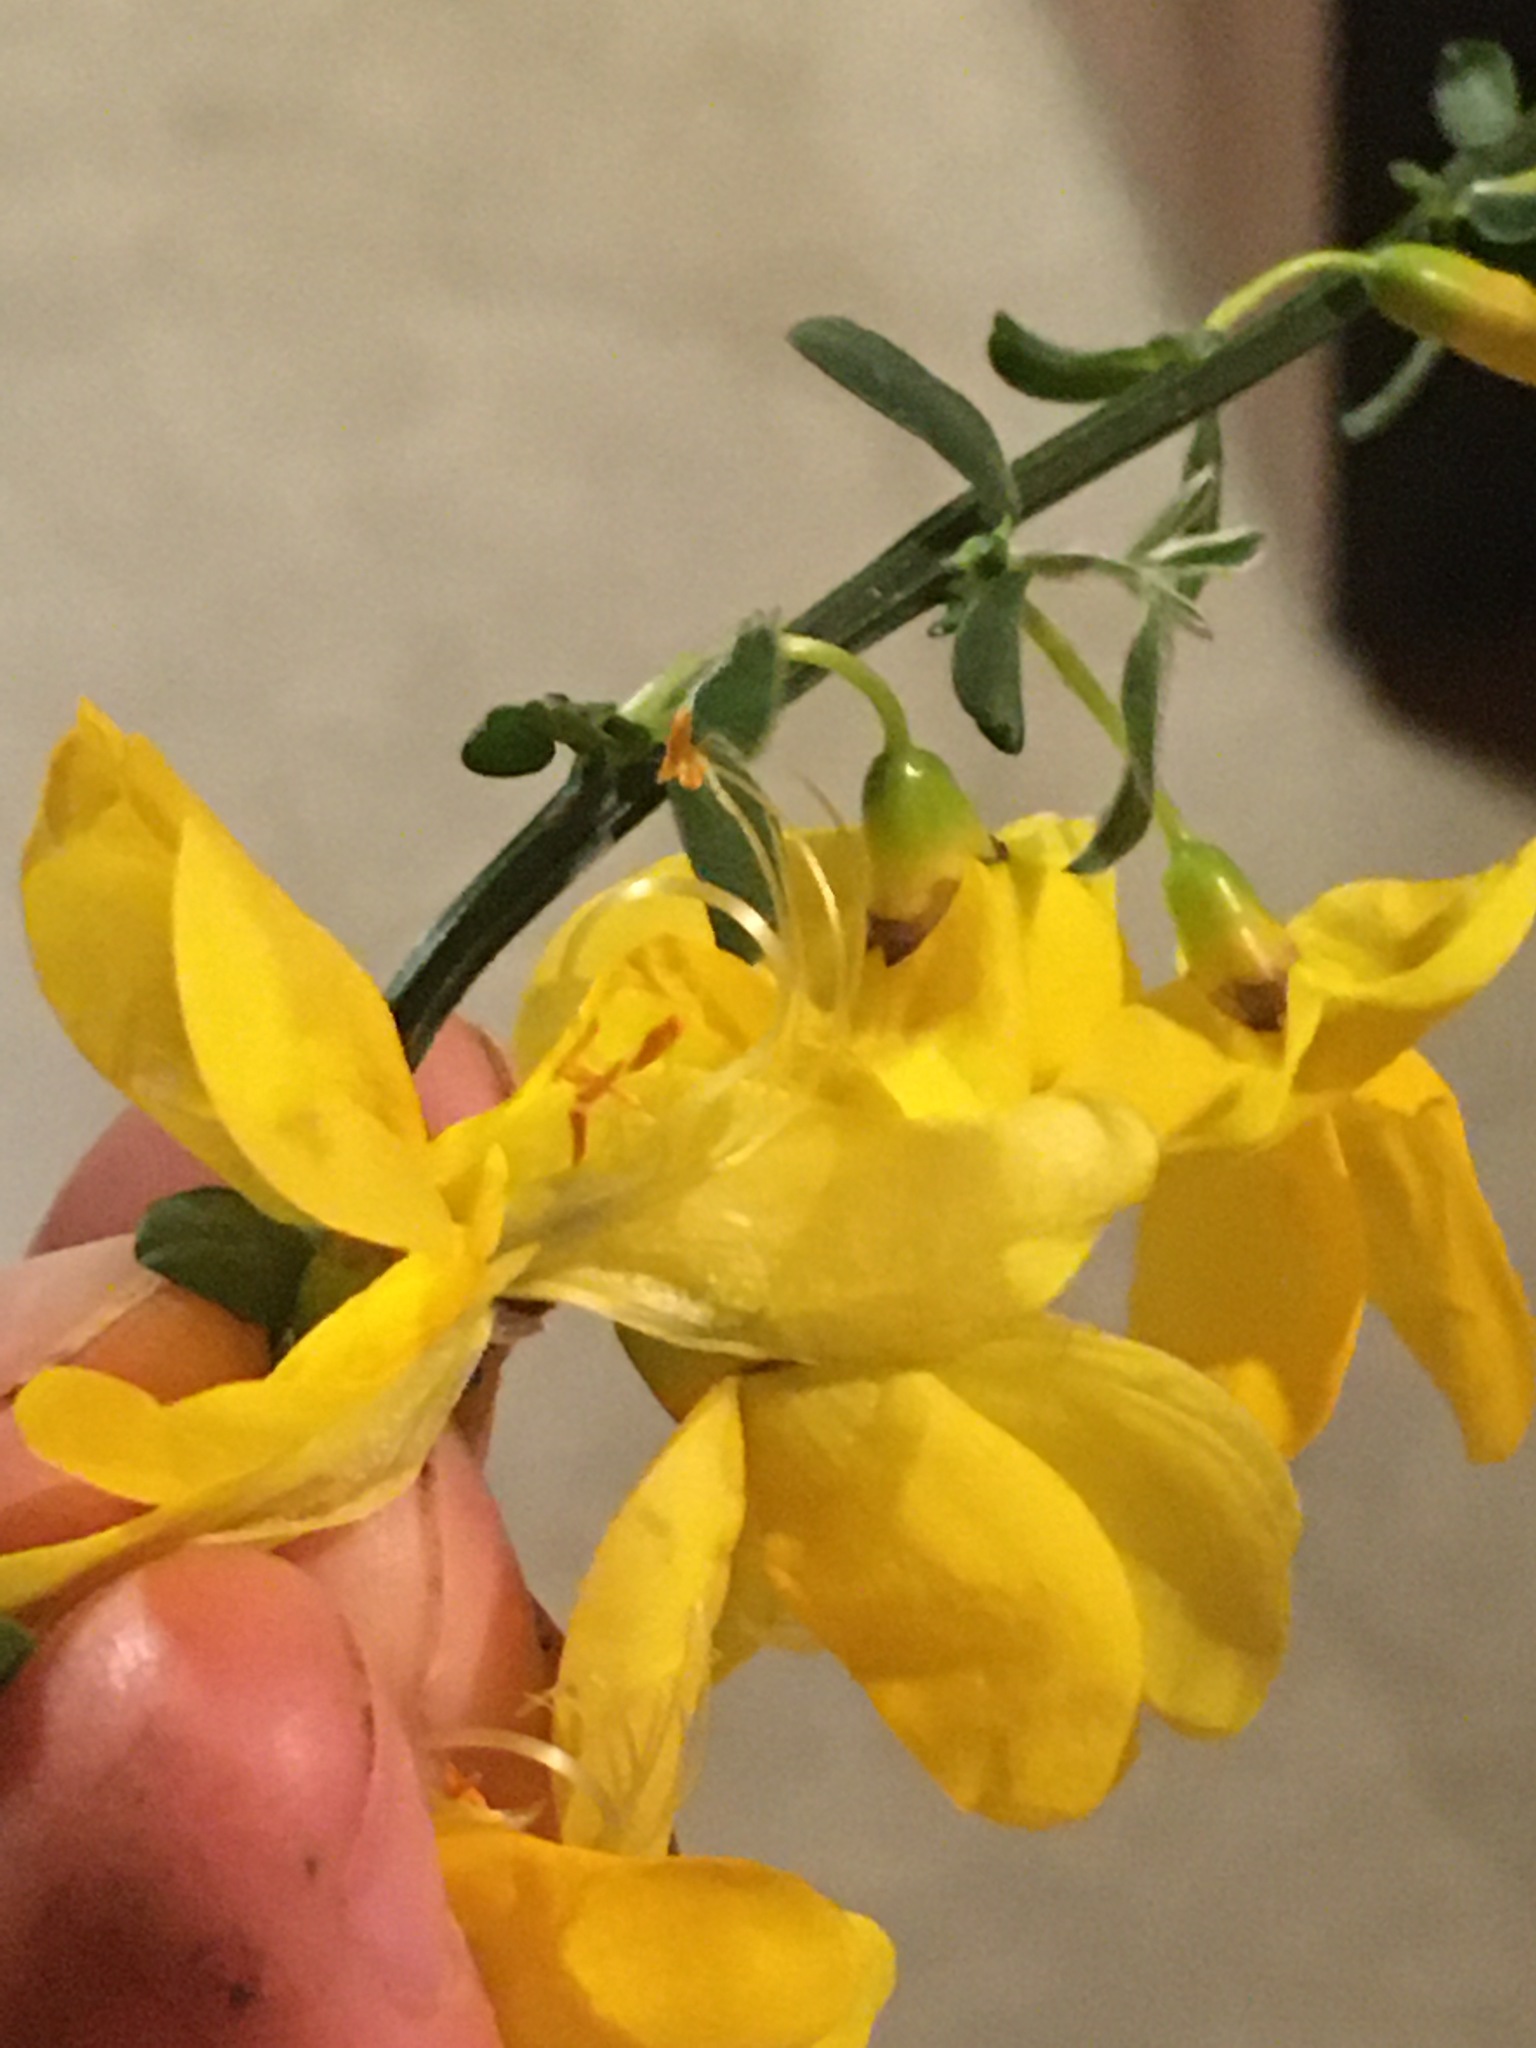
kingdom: Plantae
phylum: Tracheophyta
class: Magnoliopsida
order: Fabales
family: Fabaceae
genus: Cytisus
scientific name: Cytisus scoparius
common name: Scotch broom
